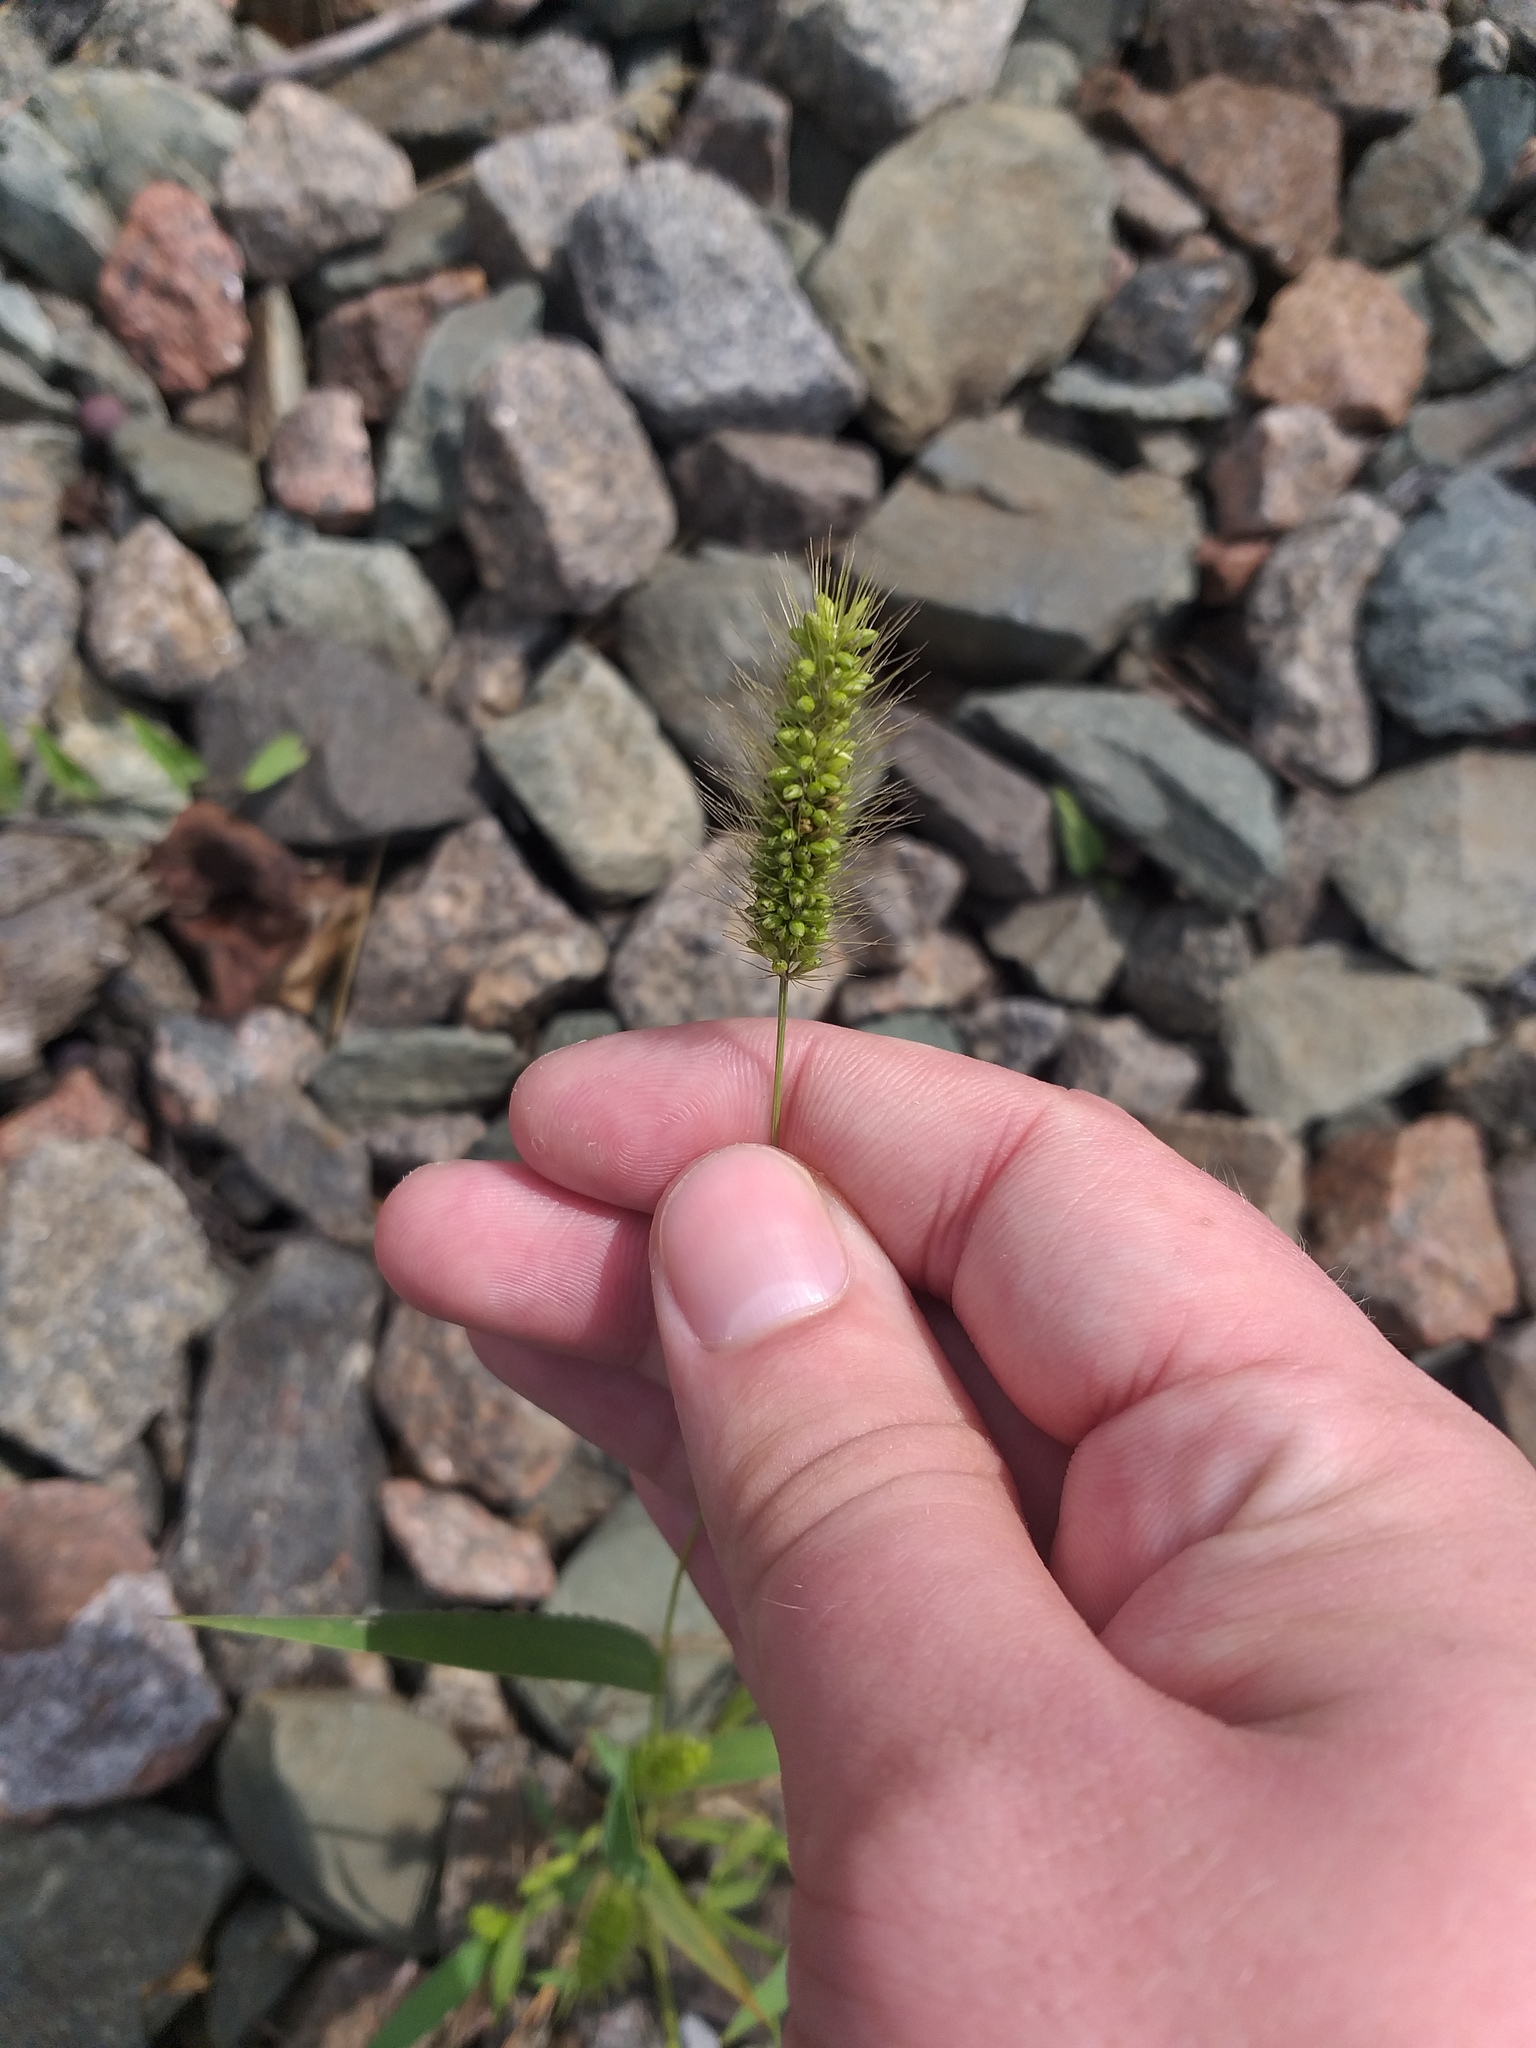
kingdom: Plantae
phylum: Tracheophyta
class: Liliopsida
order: Poales
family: Poaceae
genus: Setaria
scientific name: Setaria viridis
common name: Green bristlegrass
